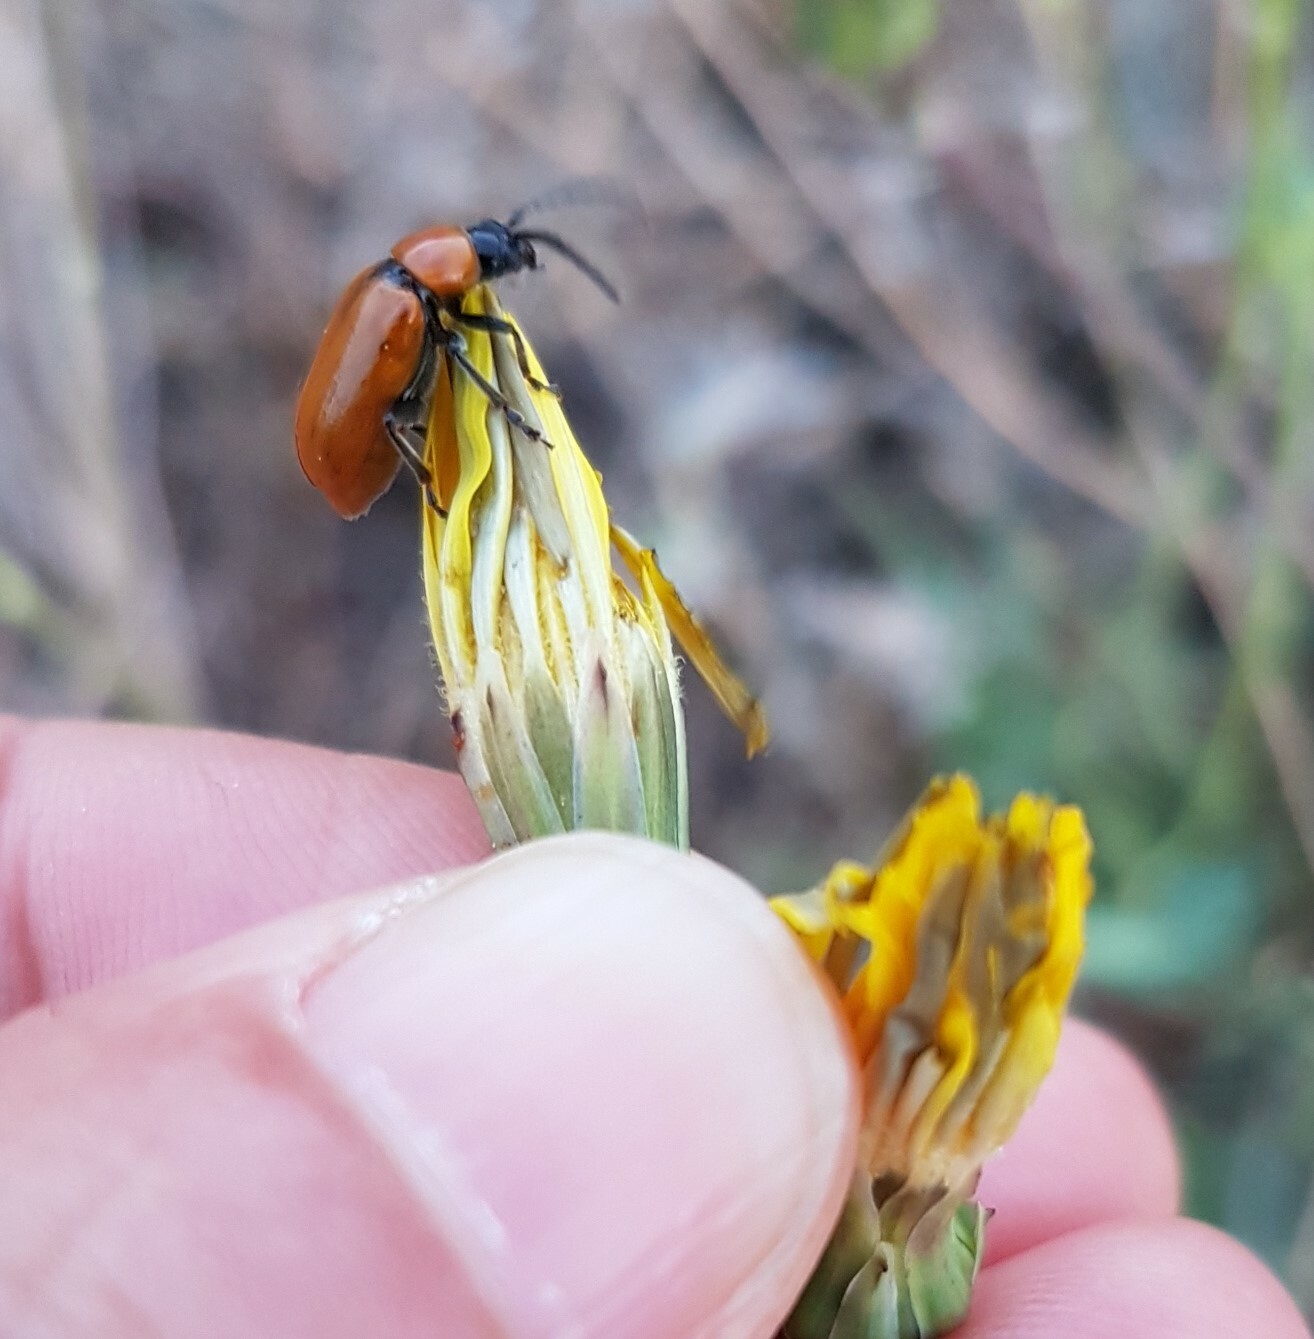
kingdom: Animalia
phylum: Arthropoda
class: Insecta
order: Coleoptera
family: Chrysomelidae
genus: Exosoma
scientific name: Exosoma lusitanicum
